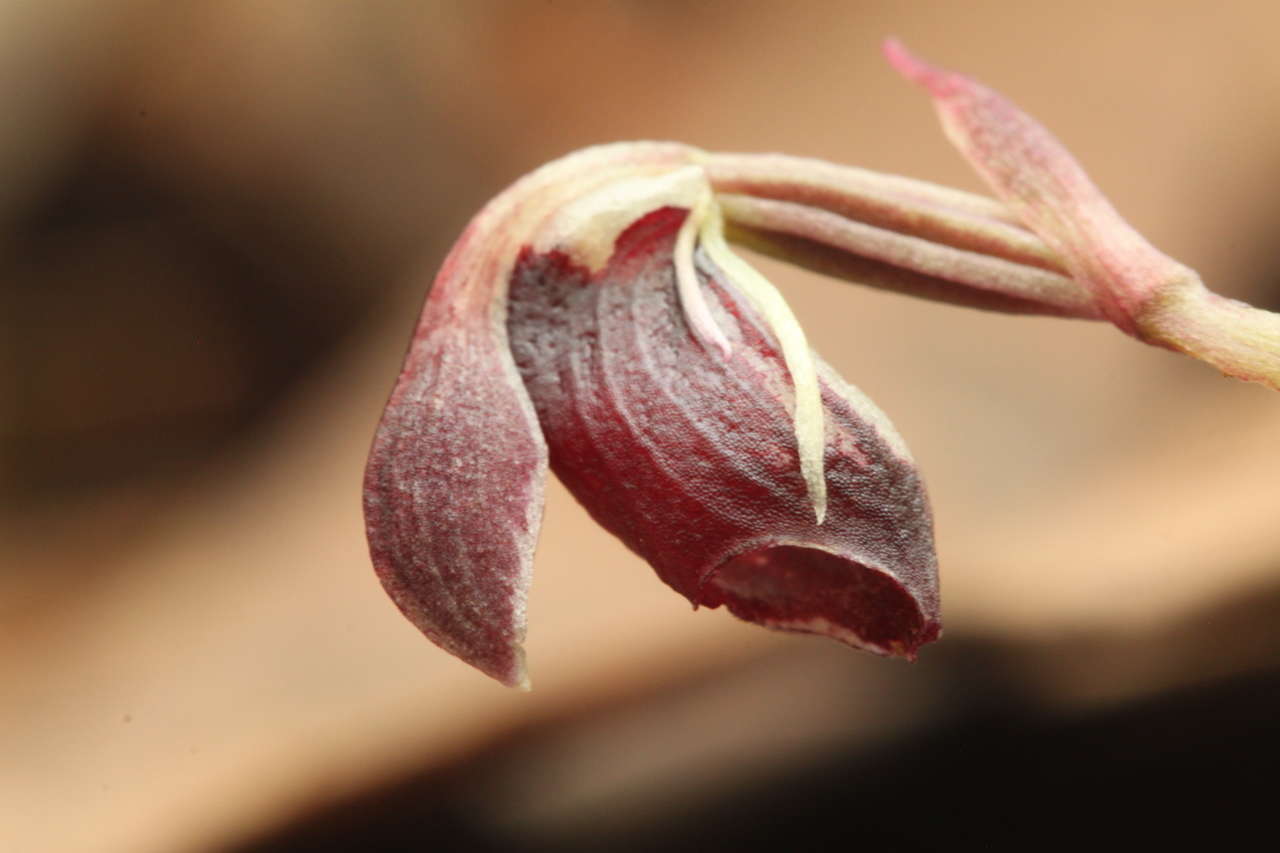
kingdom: Plantae
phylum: Tracheophyta
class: Liliopsida
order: Asparagales
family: Orchidaceae
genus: Corybas
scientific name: Corybas unguiculatus
